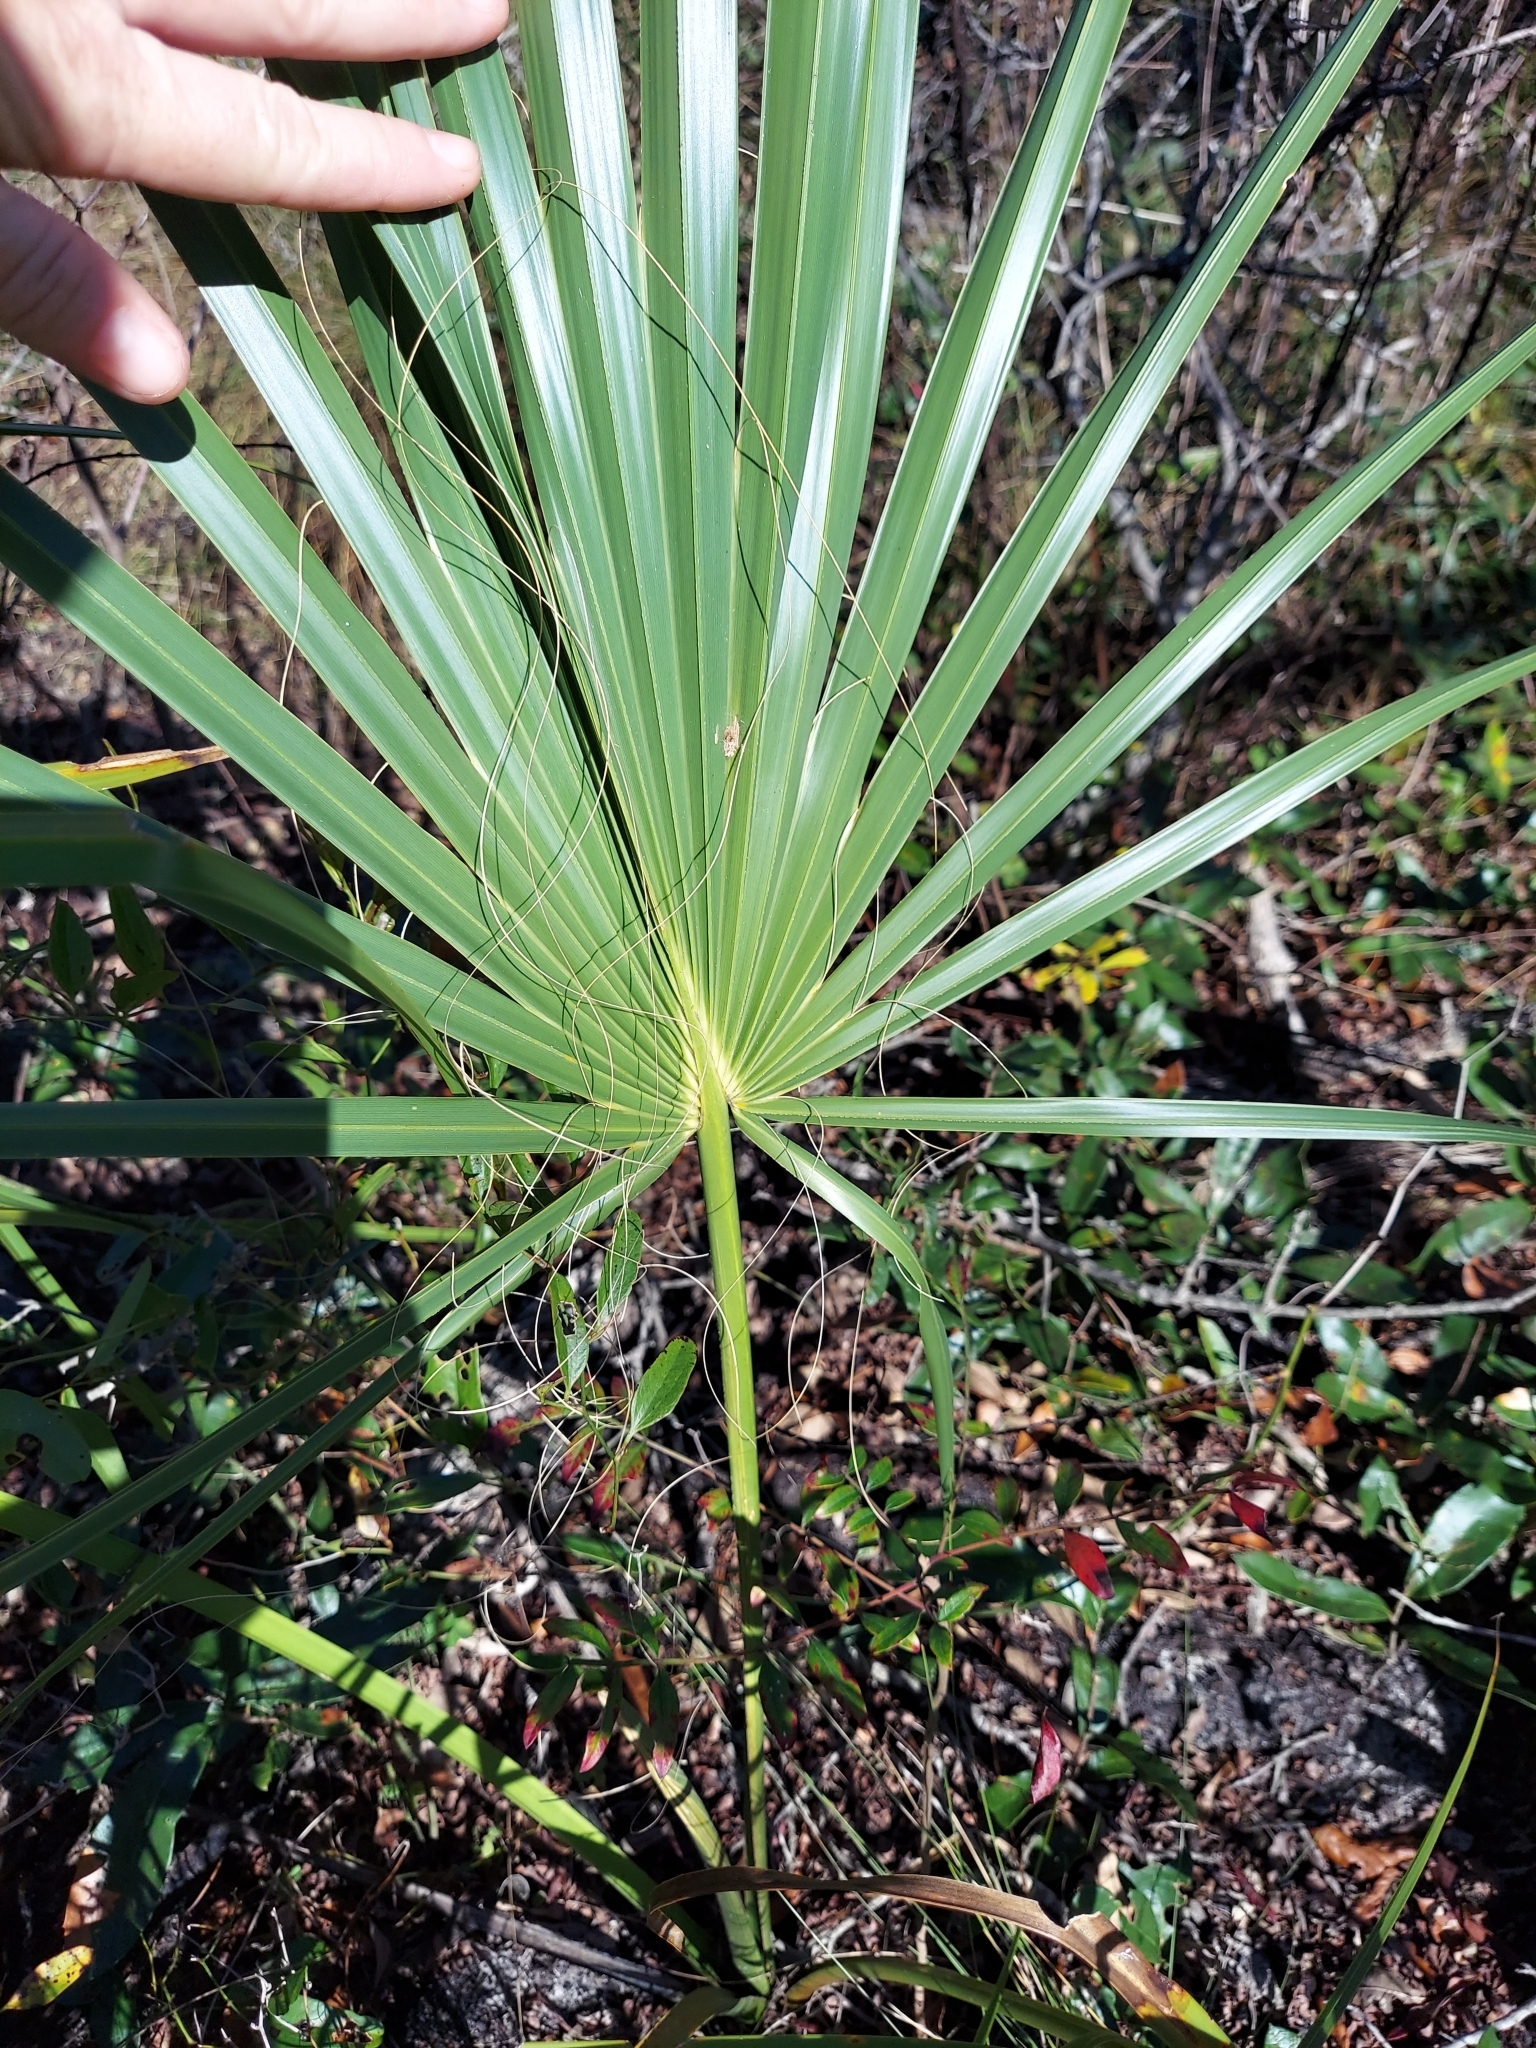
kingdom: Plantae
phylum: Tracheophyta
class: Liliopsida
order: Arecales
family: Arecaceae
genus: Sabal
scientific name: Sabal palmetto
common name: Blue palmetto
